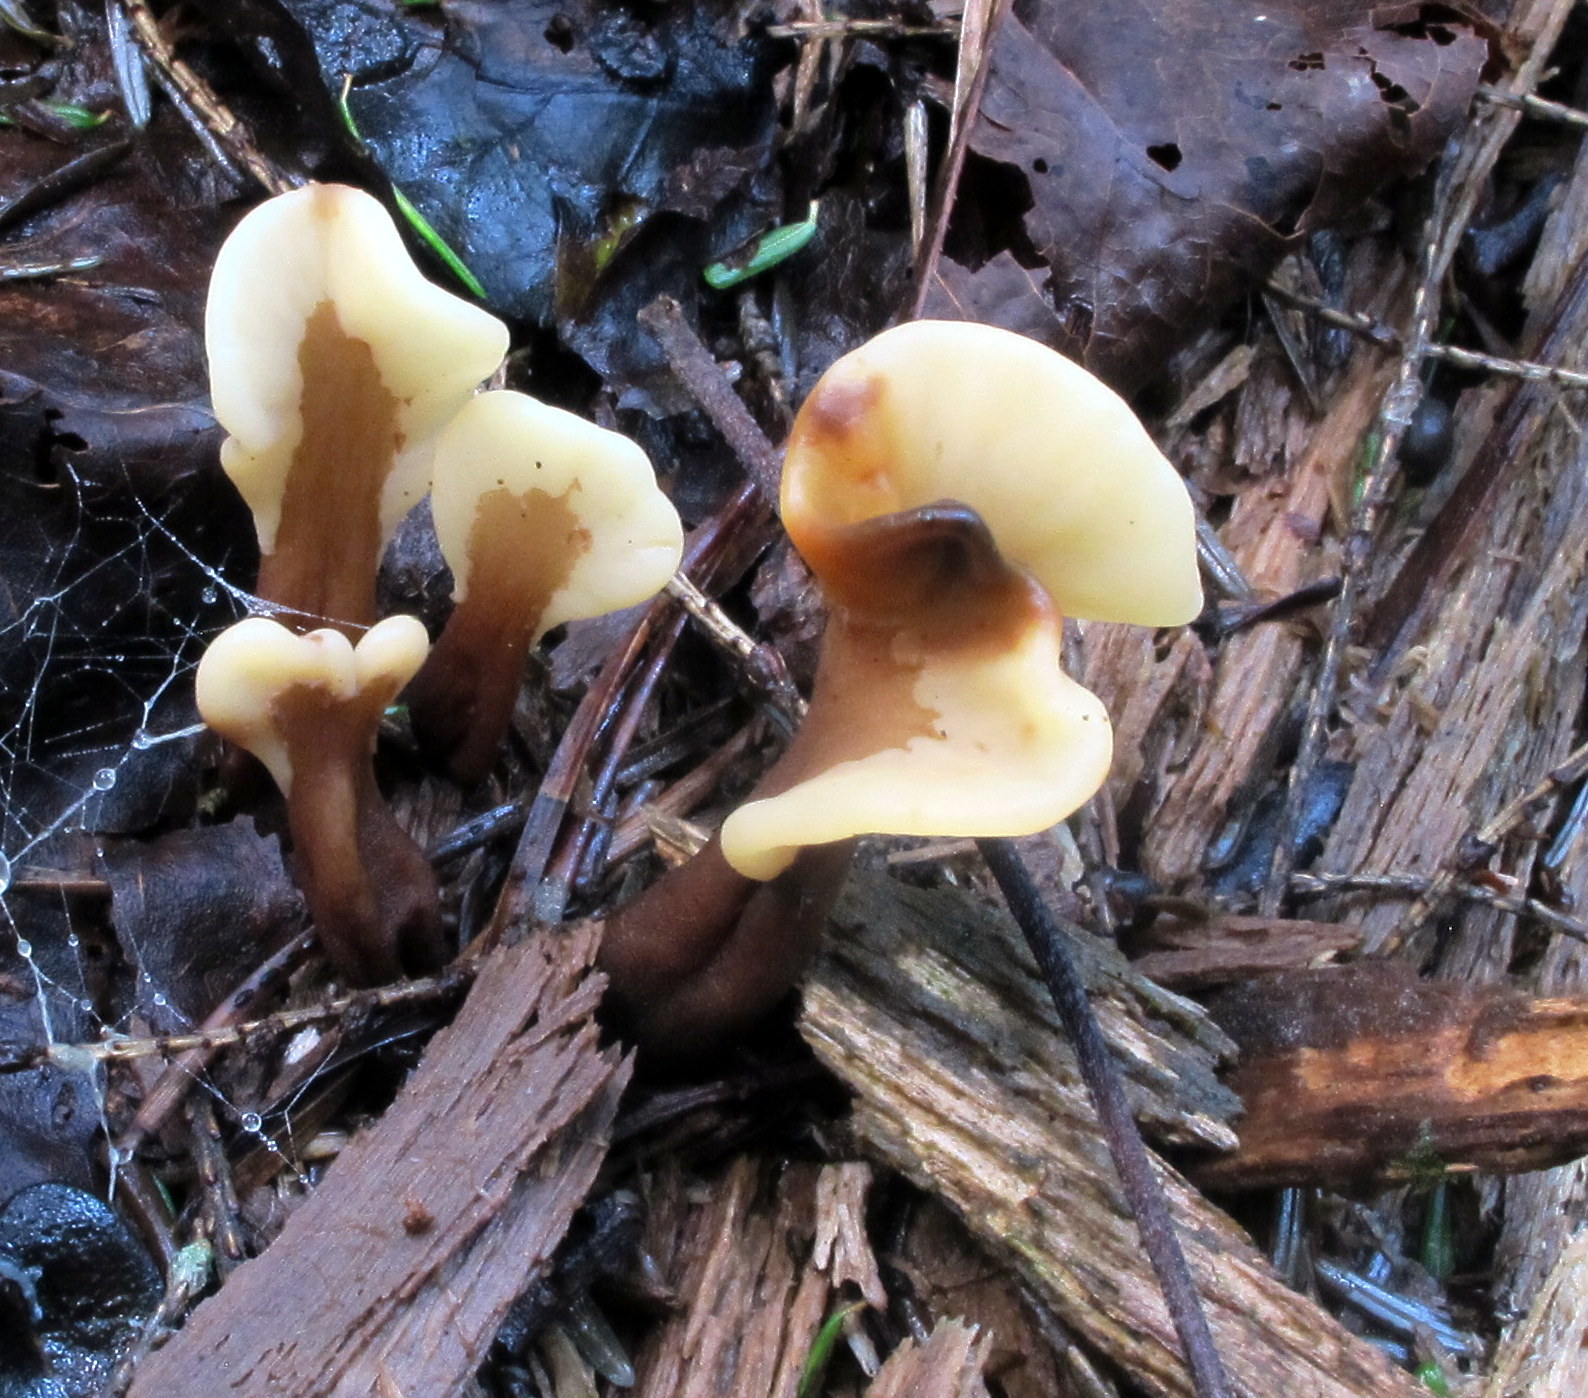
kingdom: Fungi
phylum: Ascomycota
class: Leotiomycetes
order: Rhytismatales
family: Cudoniaceae
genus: Spathulariopsis
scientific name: Spathulariopsis velutipes
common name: Velvet-foot fairy fan
